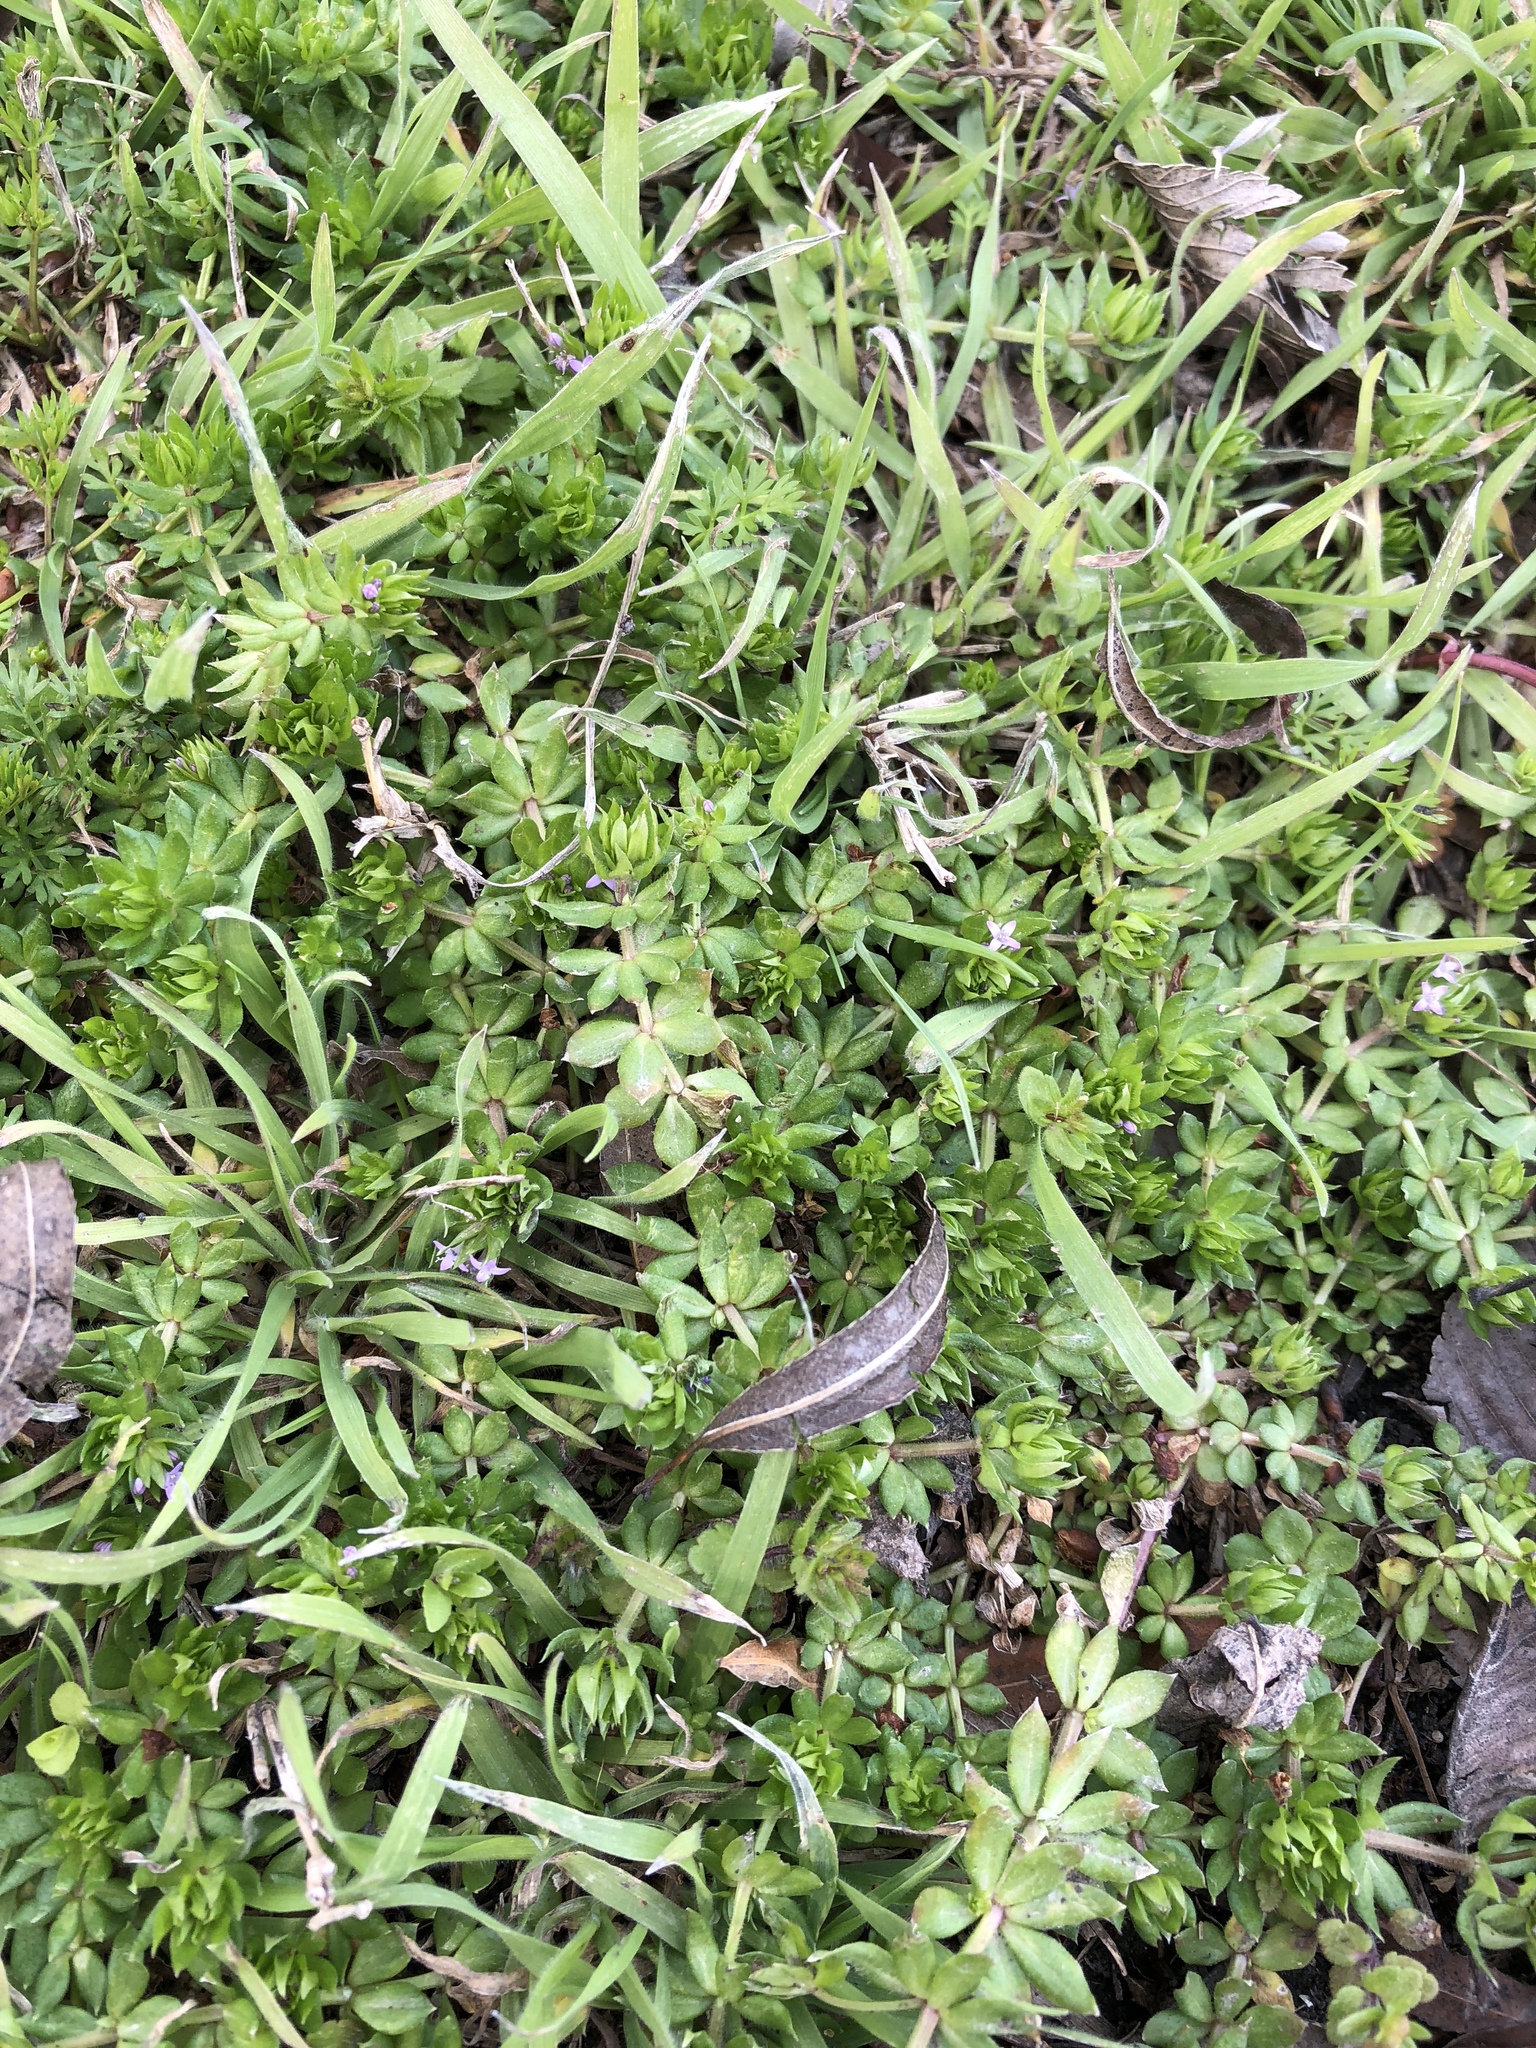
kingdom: Plantae
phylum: Tracheophyta
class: Magnoliopsida
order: Gentianales
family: Rubiaceae
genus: Sherardia
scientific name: Sherardia arvensis
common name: Field madder
